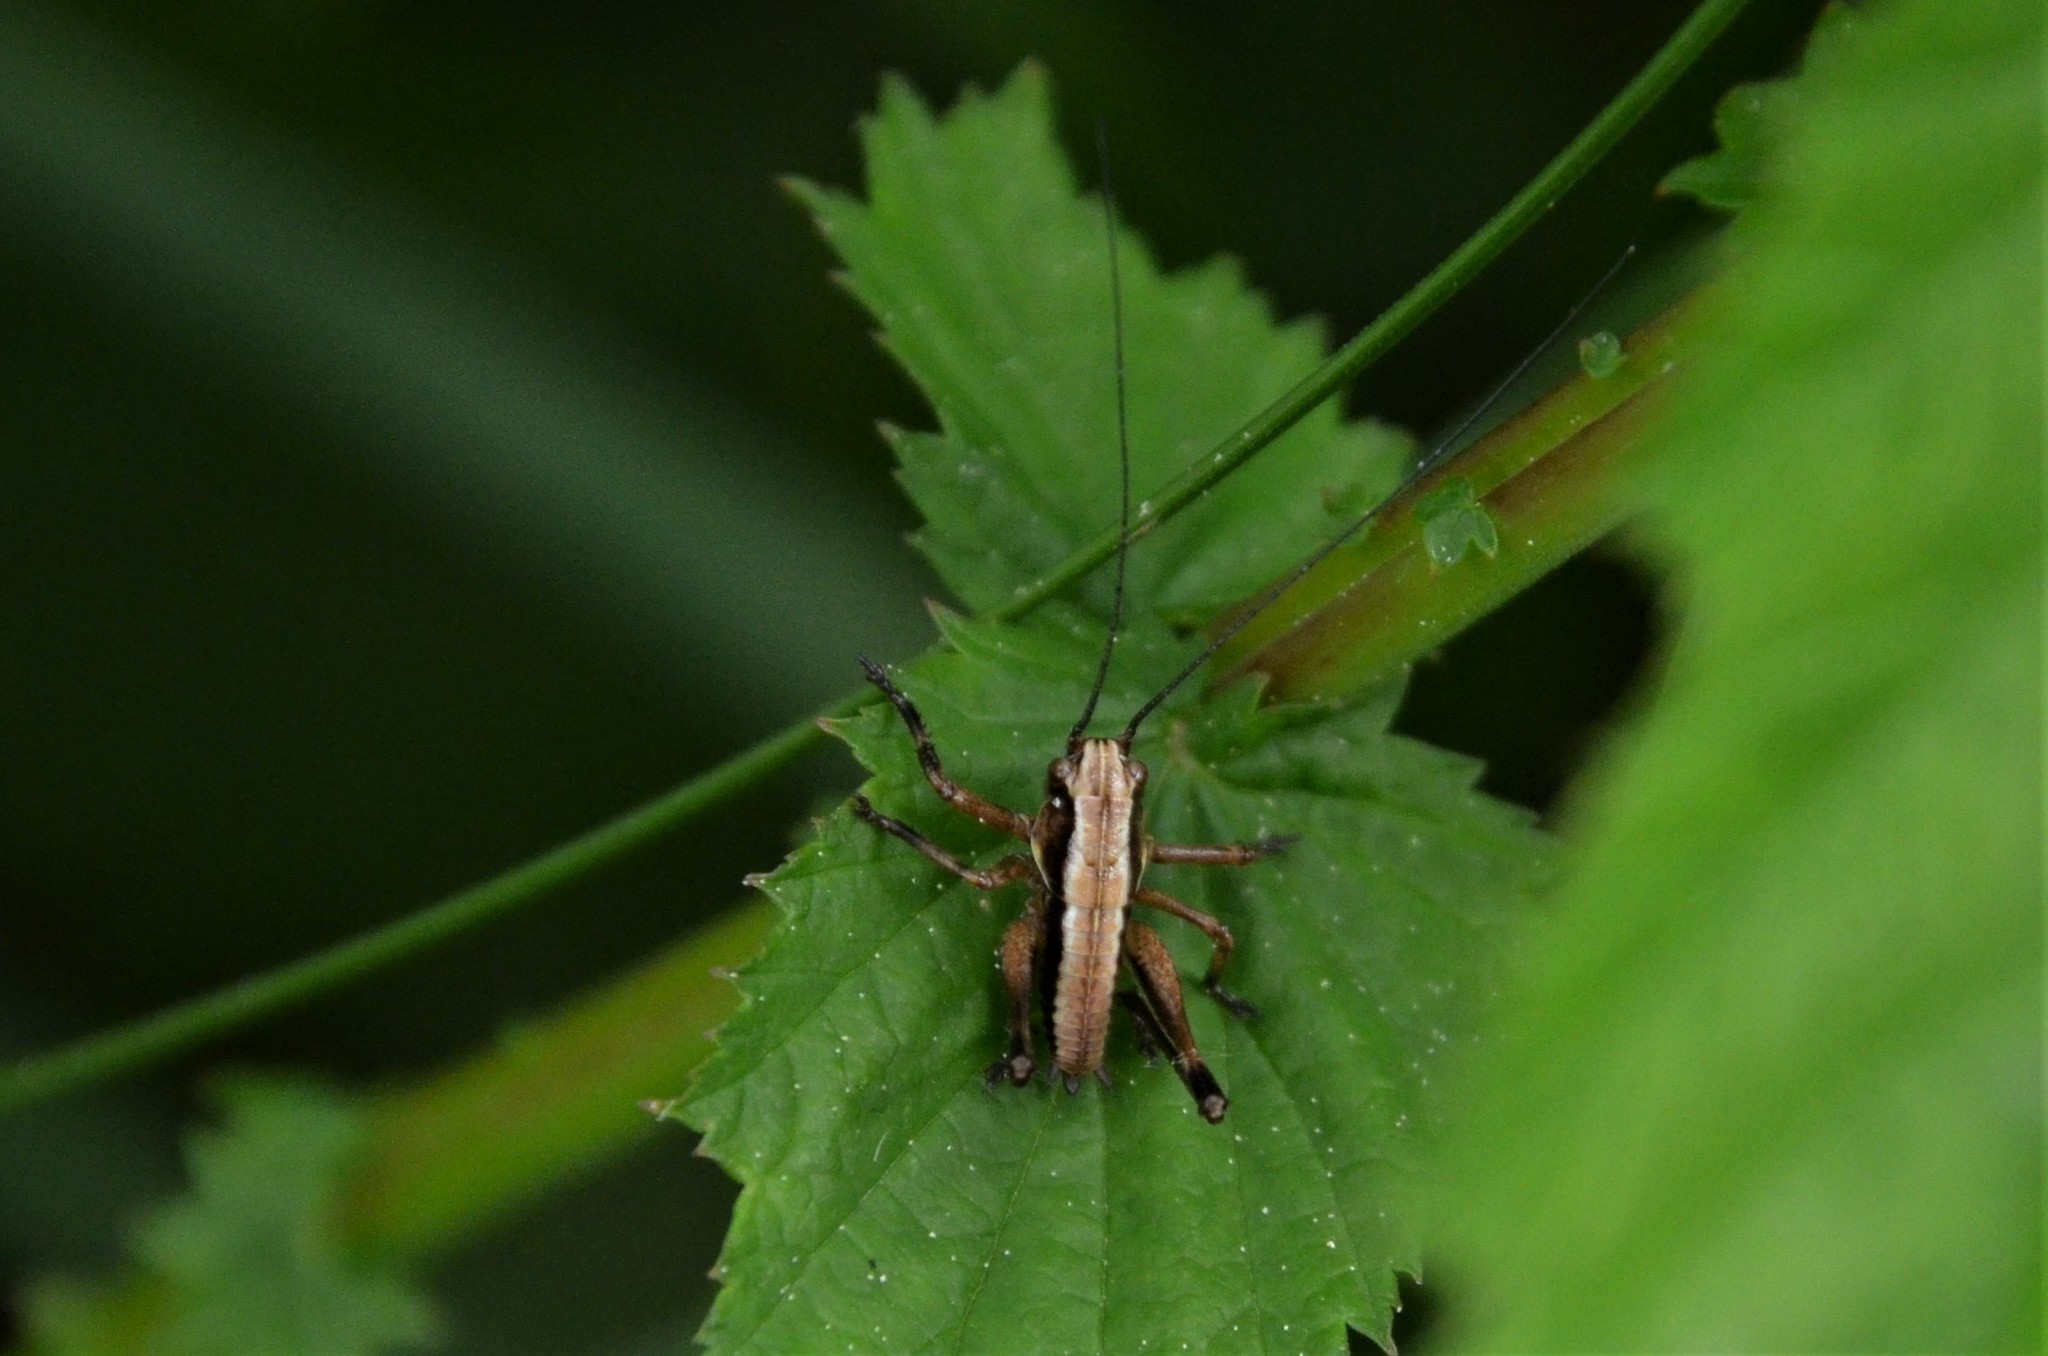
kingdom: Animalia
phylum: Arthropoda
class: Insecta
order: Orthoptera
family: Tettigoniidae
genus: Pholidoptera
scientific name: Pholidoptera griseoaptera
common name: Dark bush-cricket
